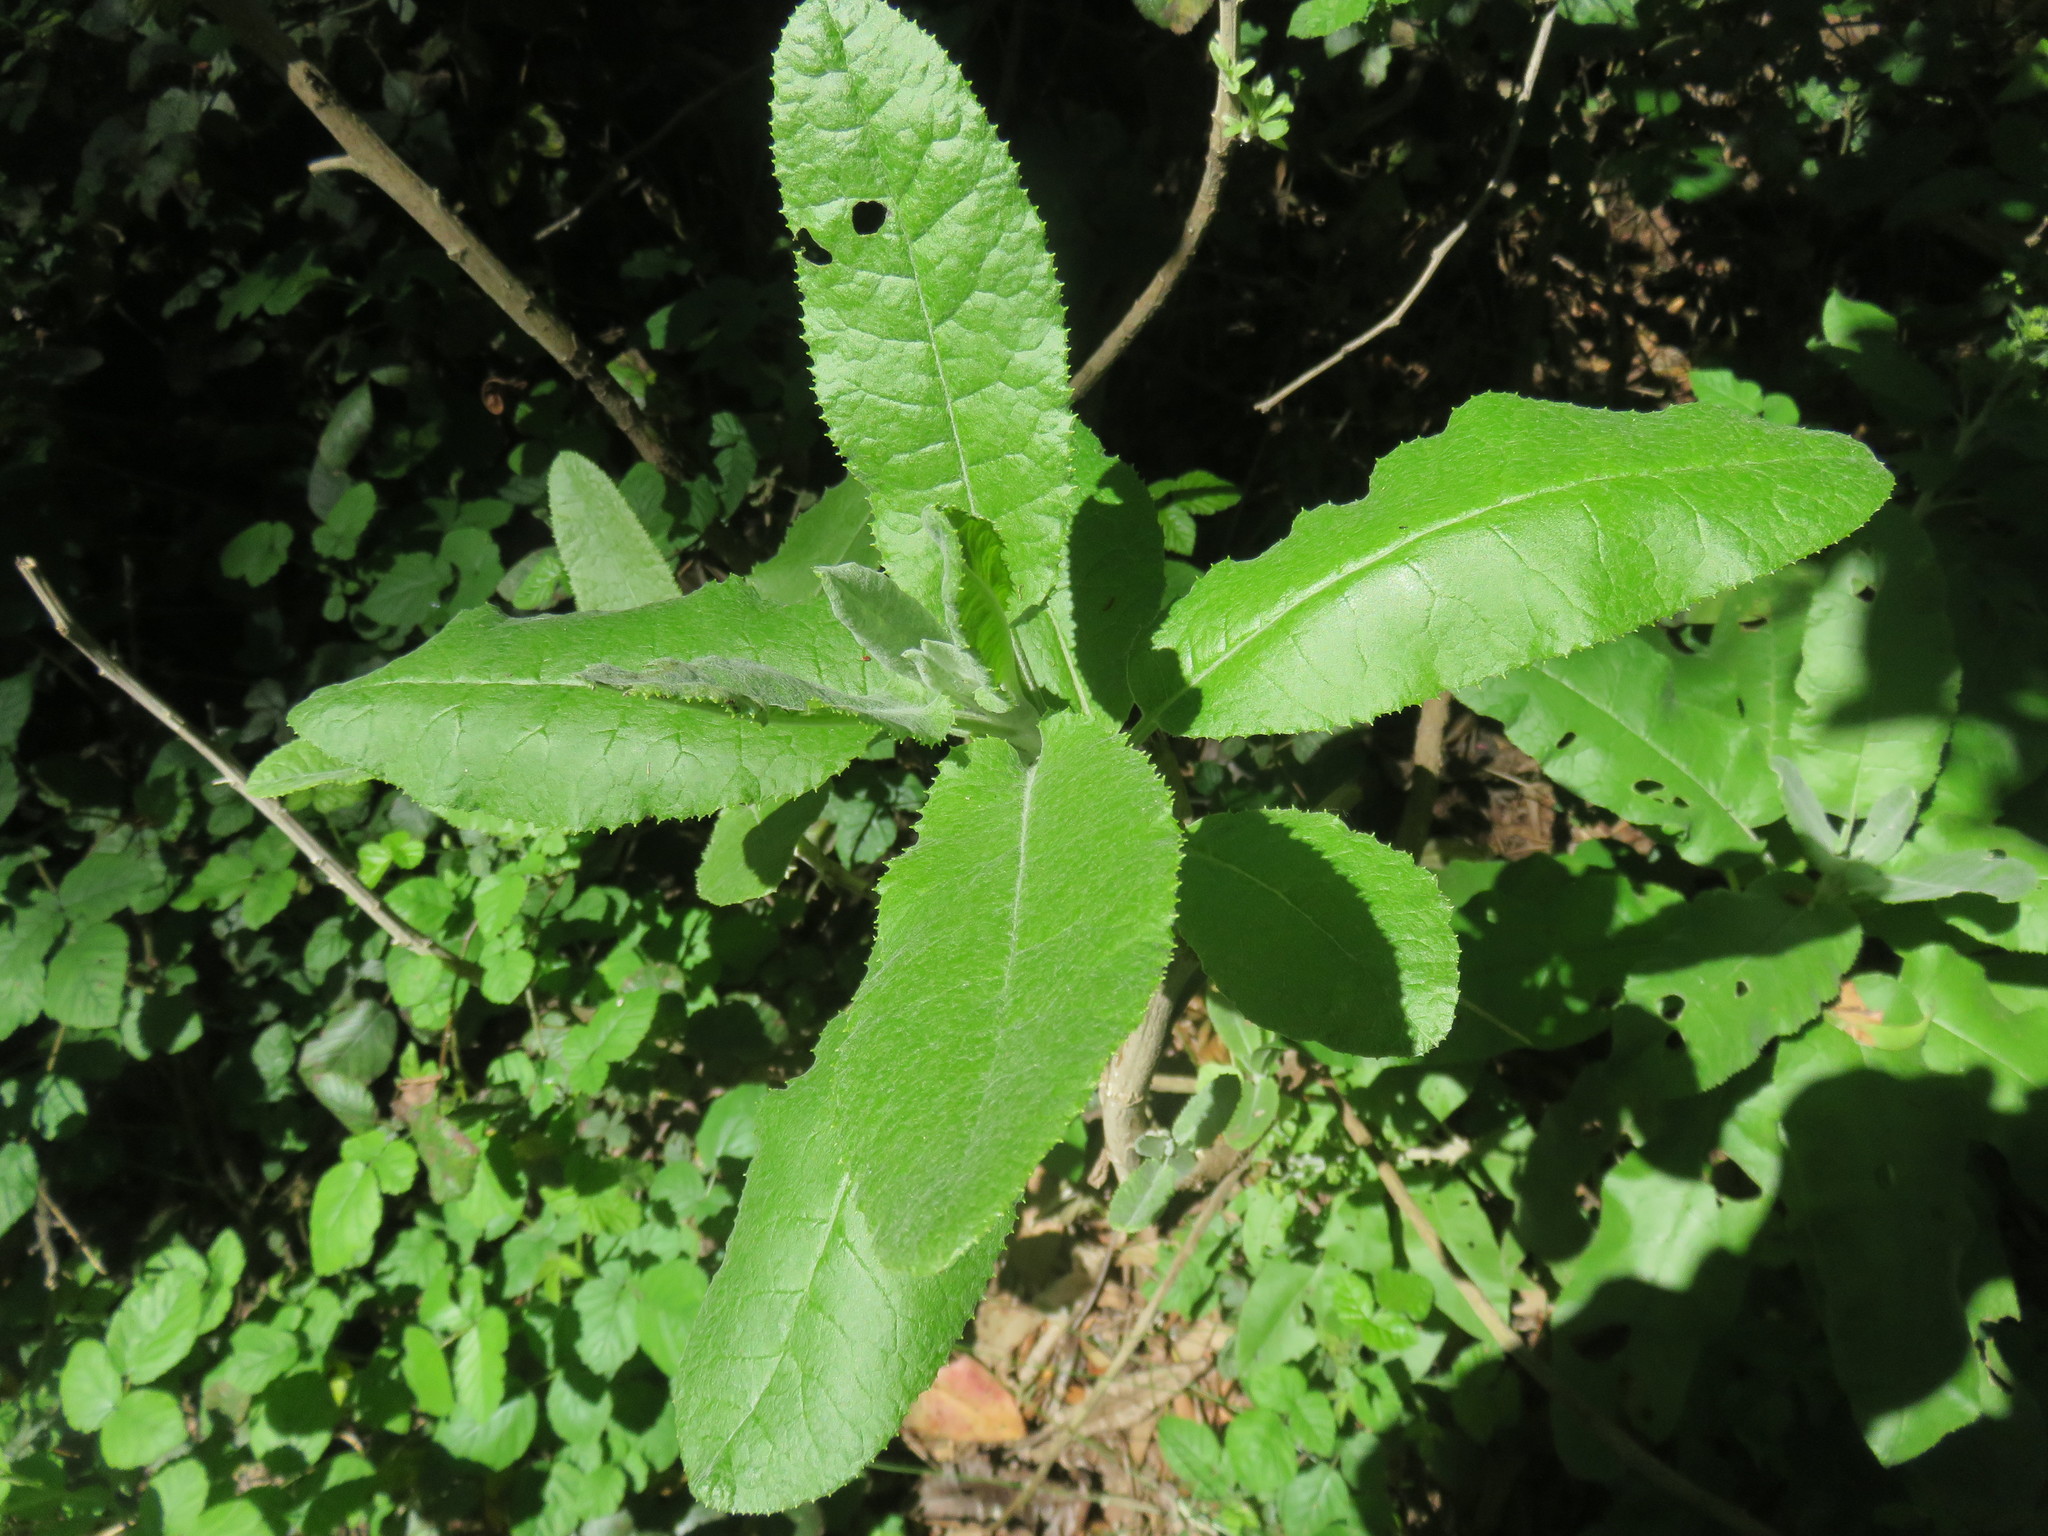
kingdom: Plantae
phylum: Tracheophyta
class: Magnoliopsida
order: Asterales
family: Asteraceae
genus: Acrisione
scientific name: Acrisione denticulata
